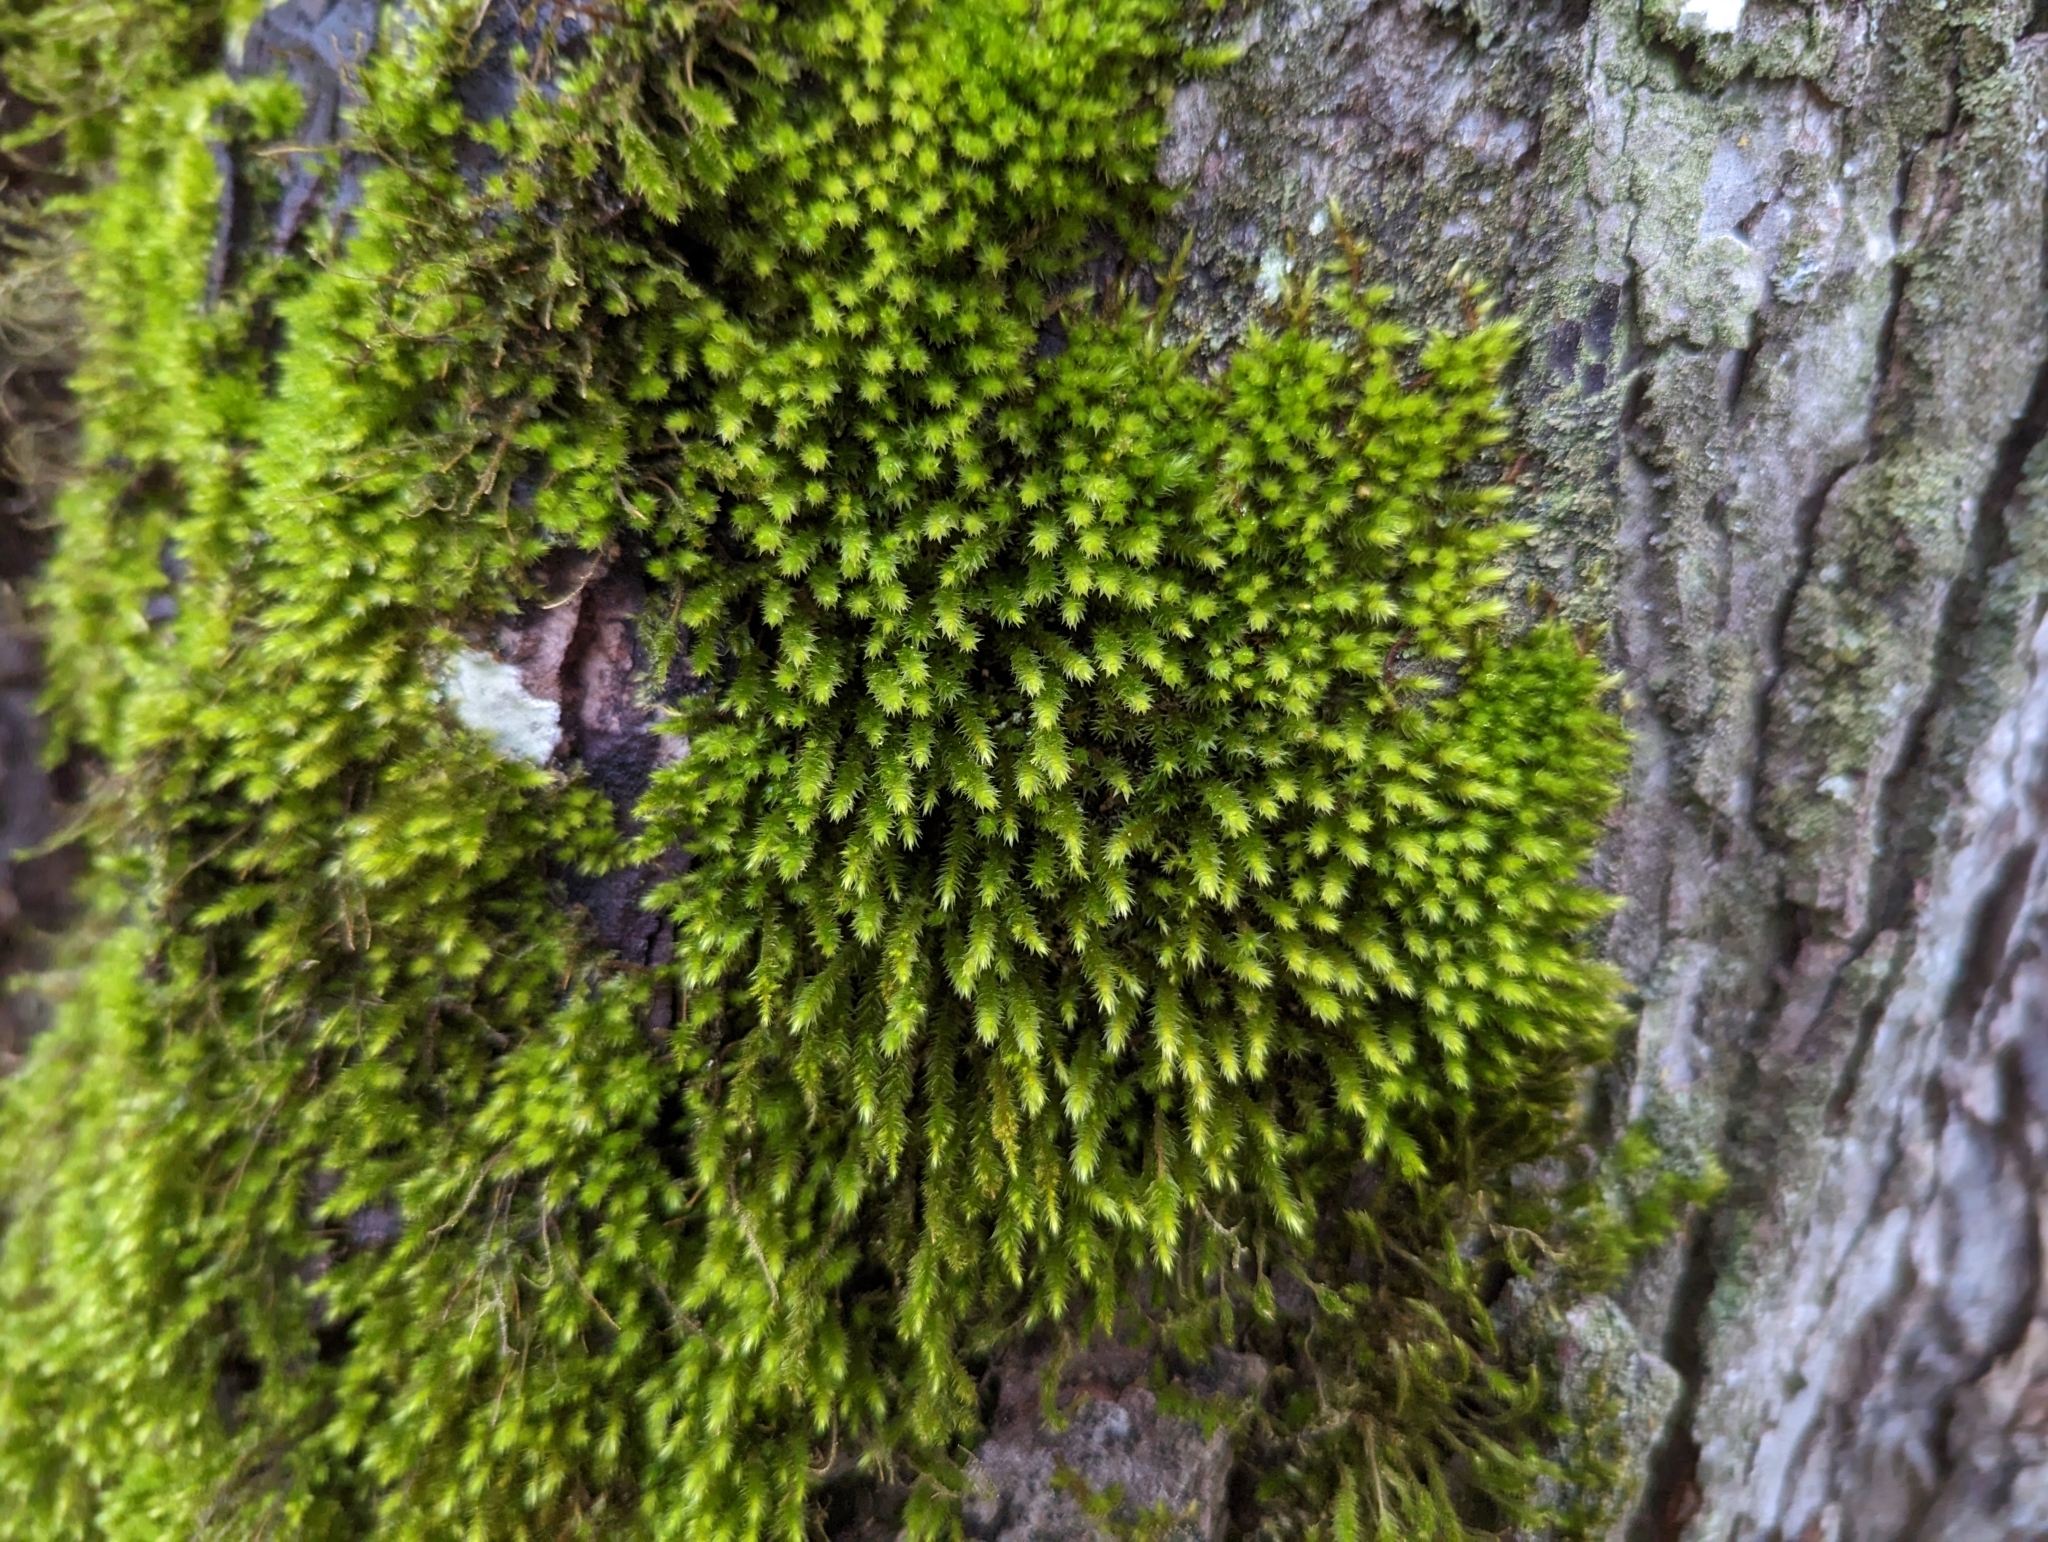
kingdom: Plantae
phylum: Bryophyta
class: Bryopsida
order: Hypnales
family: Leucodontaceae
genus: Leucodon
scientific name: Leucodon sciuroides
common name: Squirrel-tail moss
